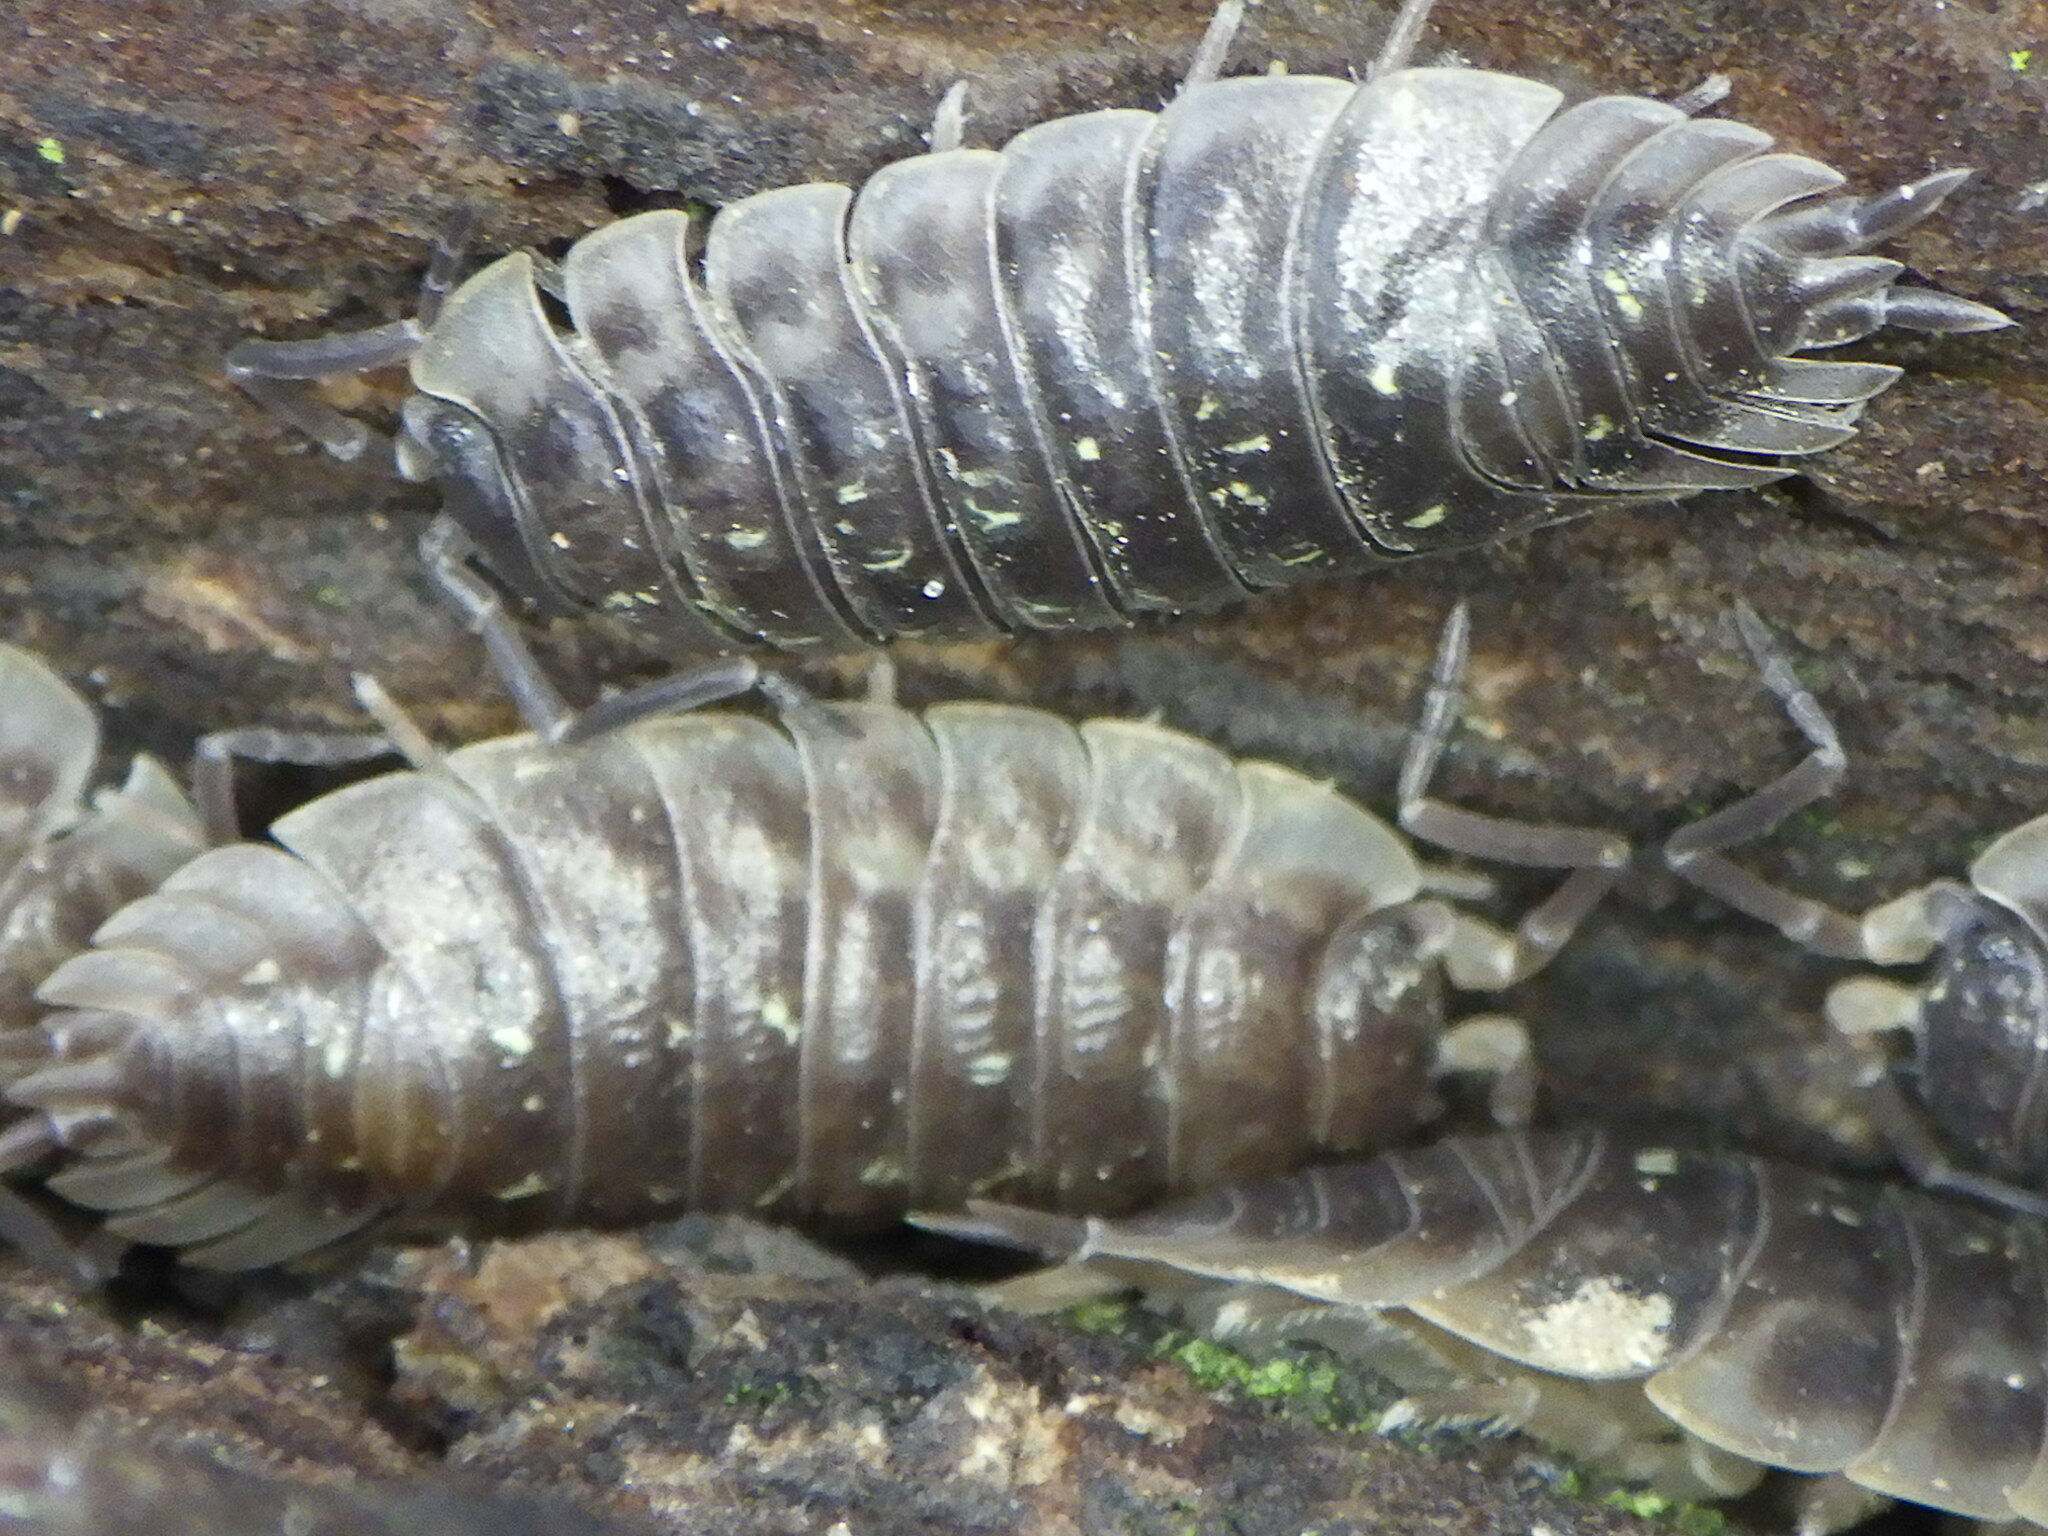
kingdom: Animalia
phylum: Arthropoda
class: Malacostraca
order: Isopoda
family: Oniscidae
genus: Oniscus
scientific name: Oniscus asellus
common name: Common shiny woodlouse
